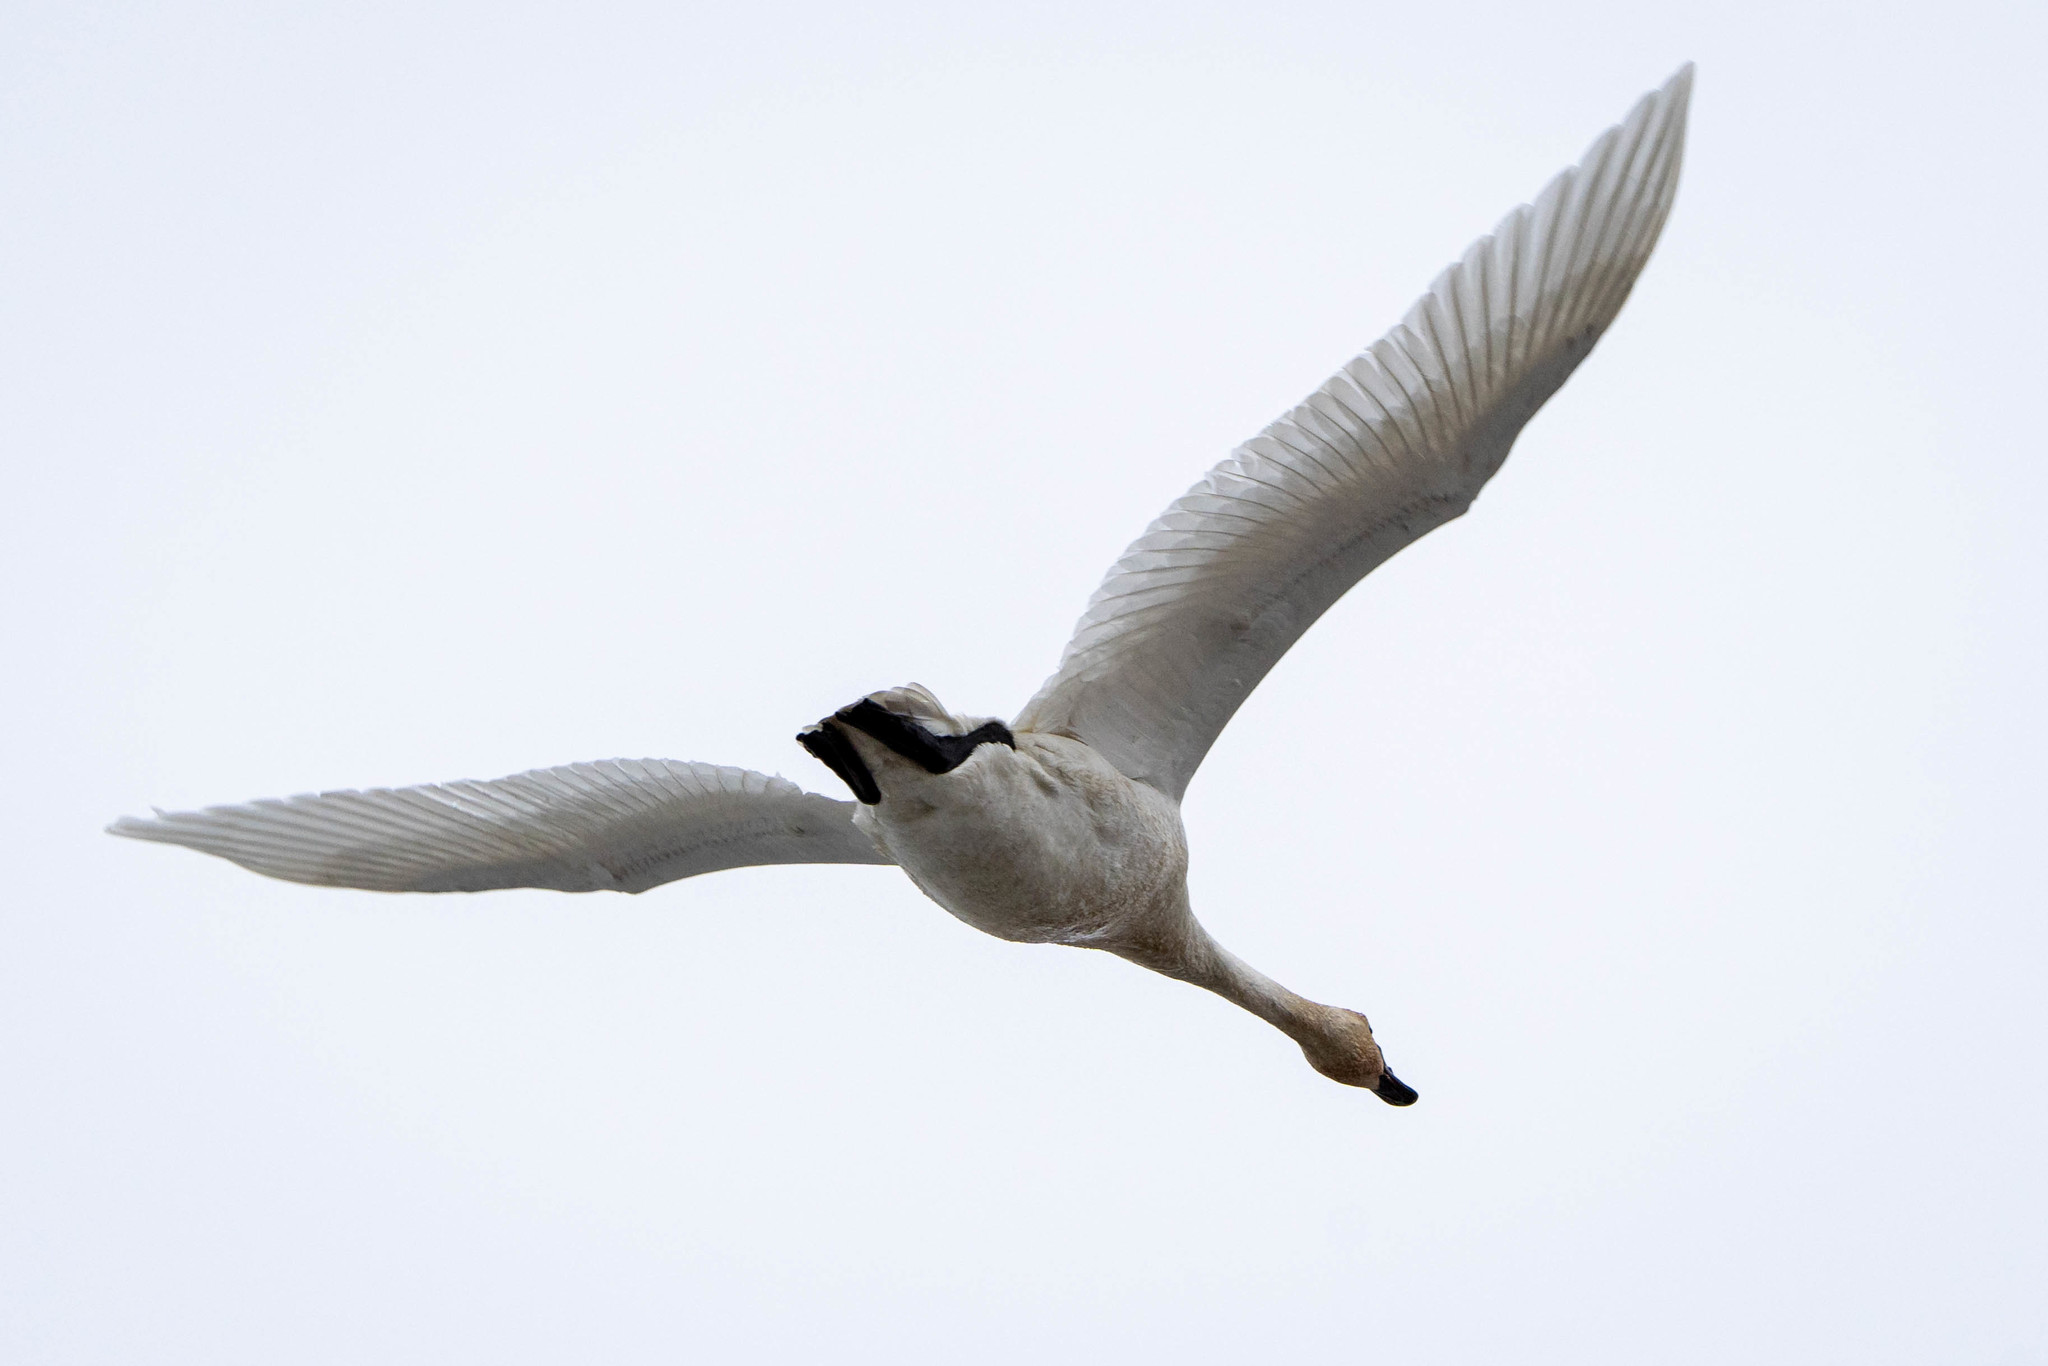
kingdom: Animalia
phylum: Chordata
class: Aves
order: Anseriformes
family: Anatidae
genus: Cygnus
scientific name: Cygnus buccinator
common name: Trumpeter swan
